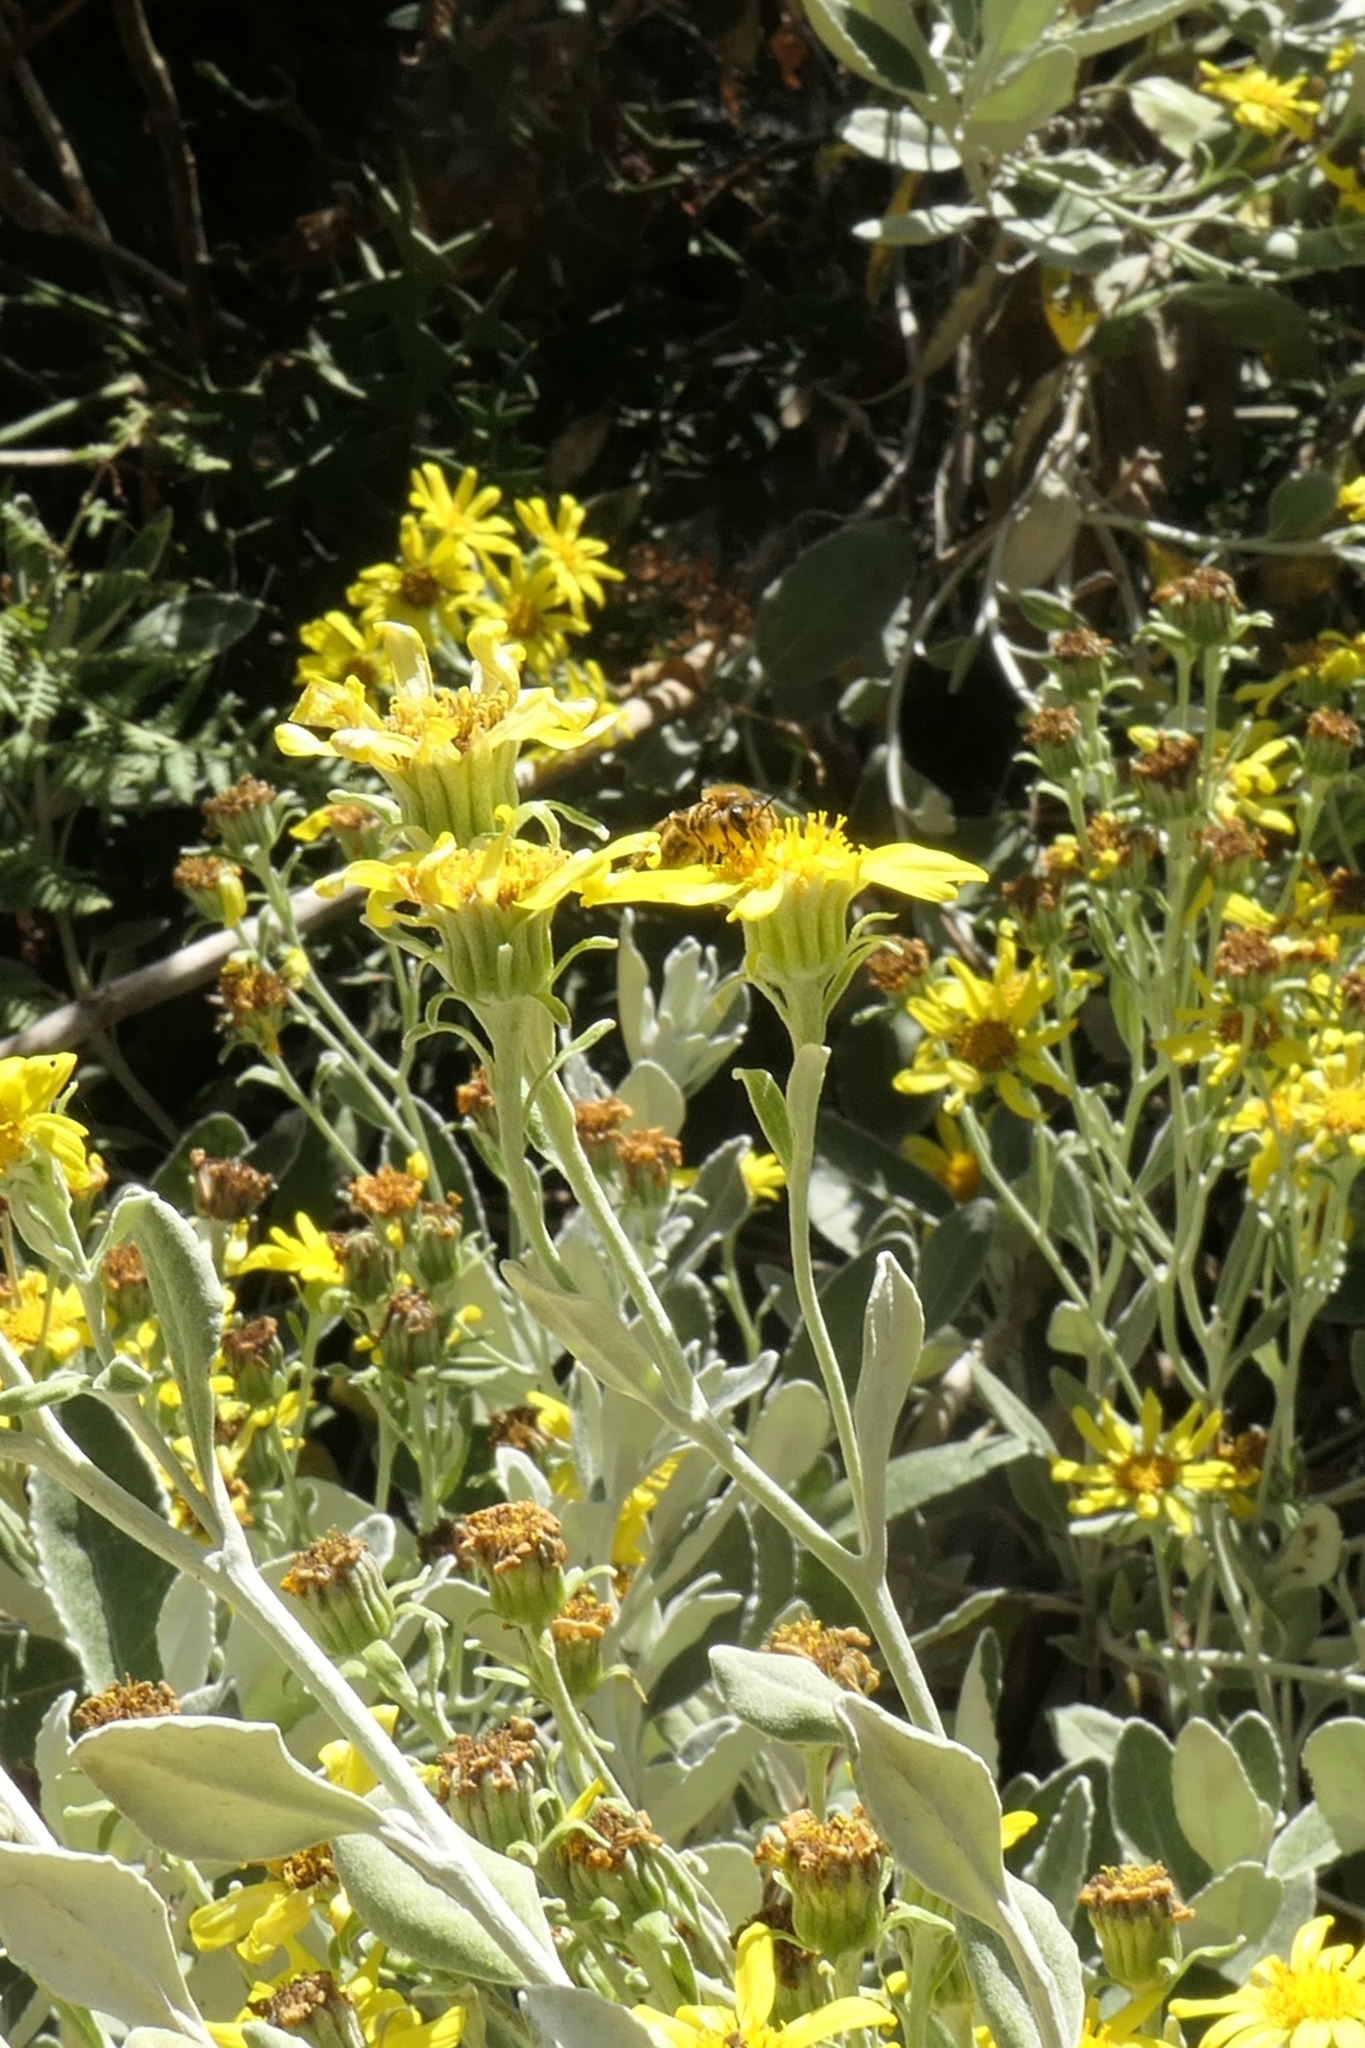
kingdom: Animalia
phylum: Arthropoda
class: Insecta
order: Hymenoptera
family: Colletidae
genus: Leioproctus
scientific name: Leioproctus fulvescens
